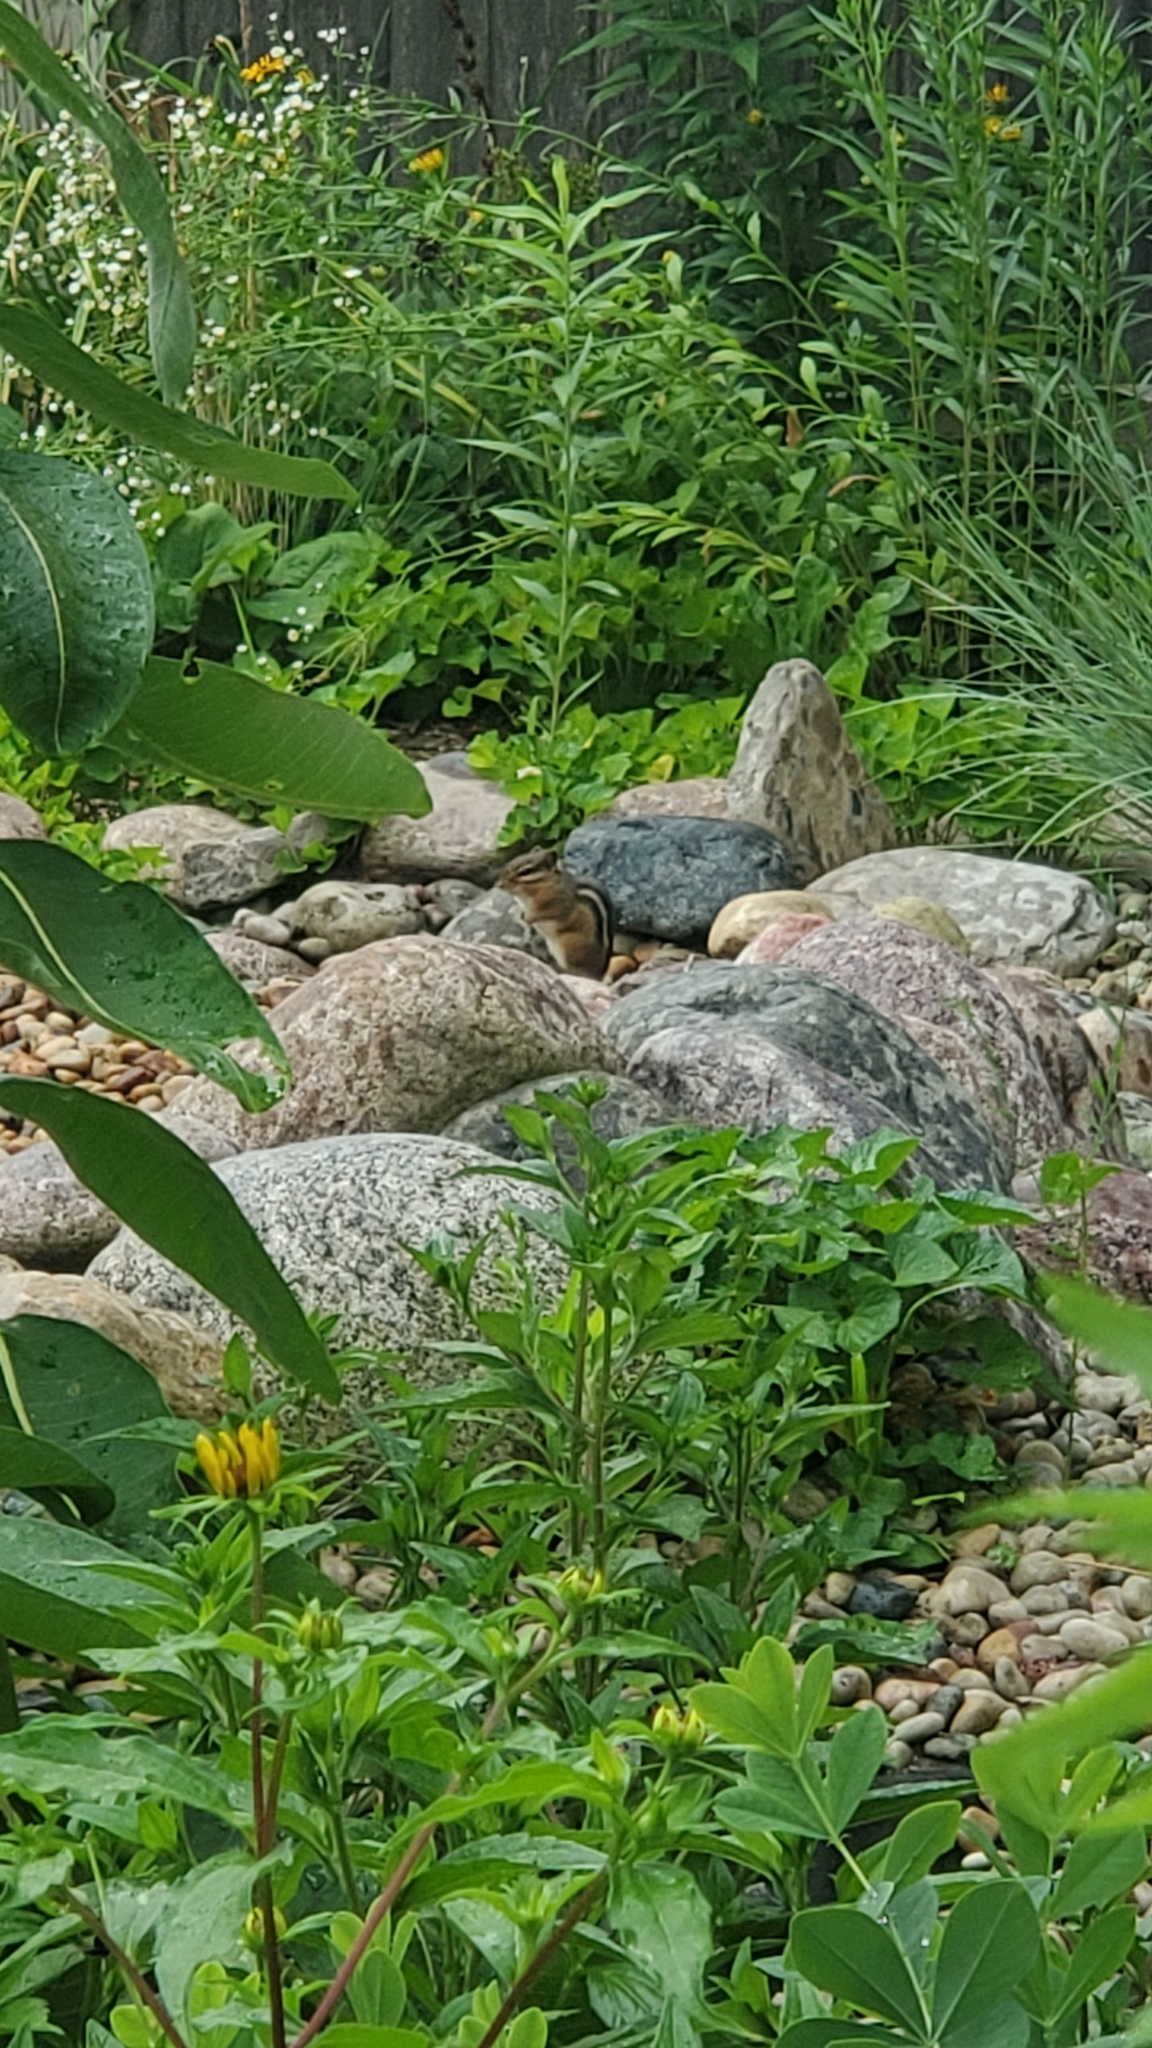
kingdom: Animalia
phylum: Chordata
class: Mammalia
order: Rodentia
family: Sciuridae
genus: Tamias
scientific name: Tamias striatus
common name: Eastern chipmunk
